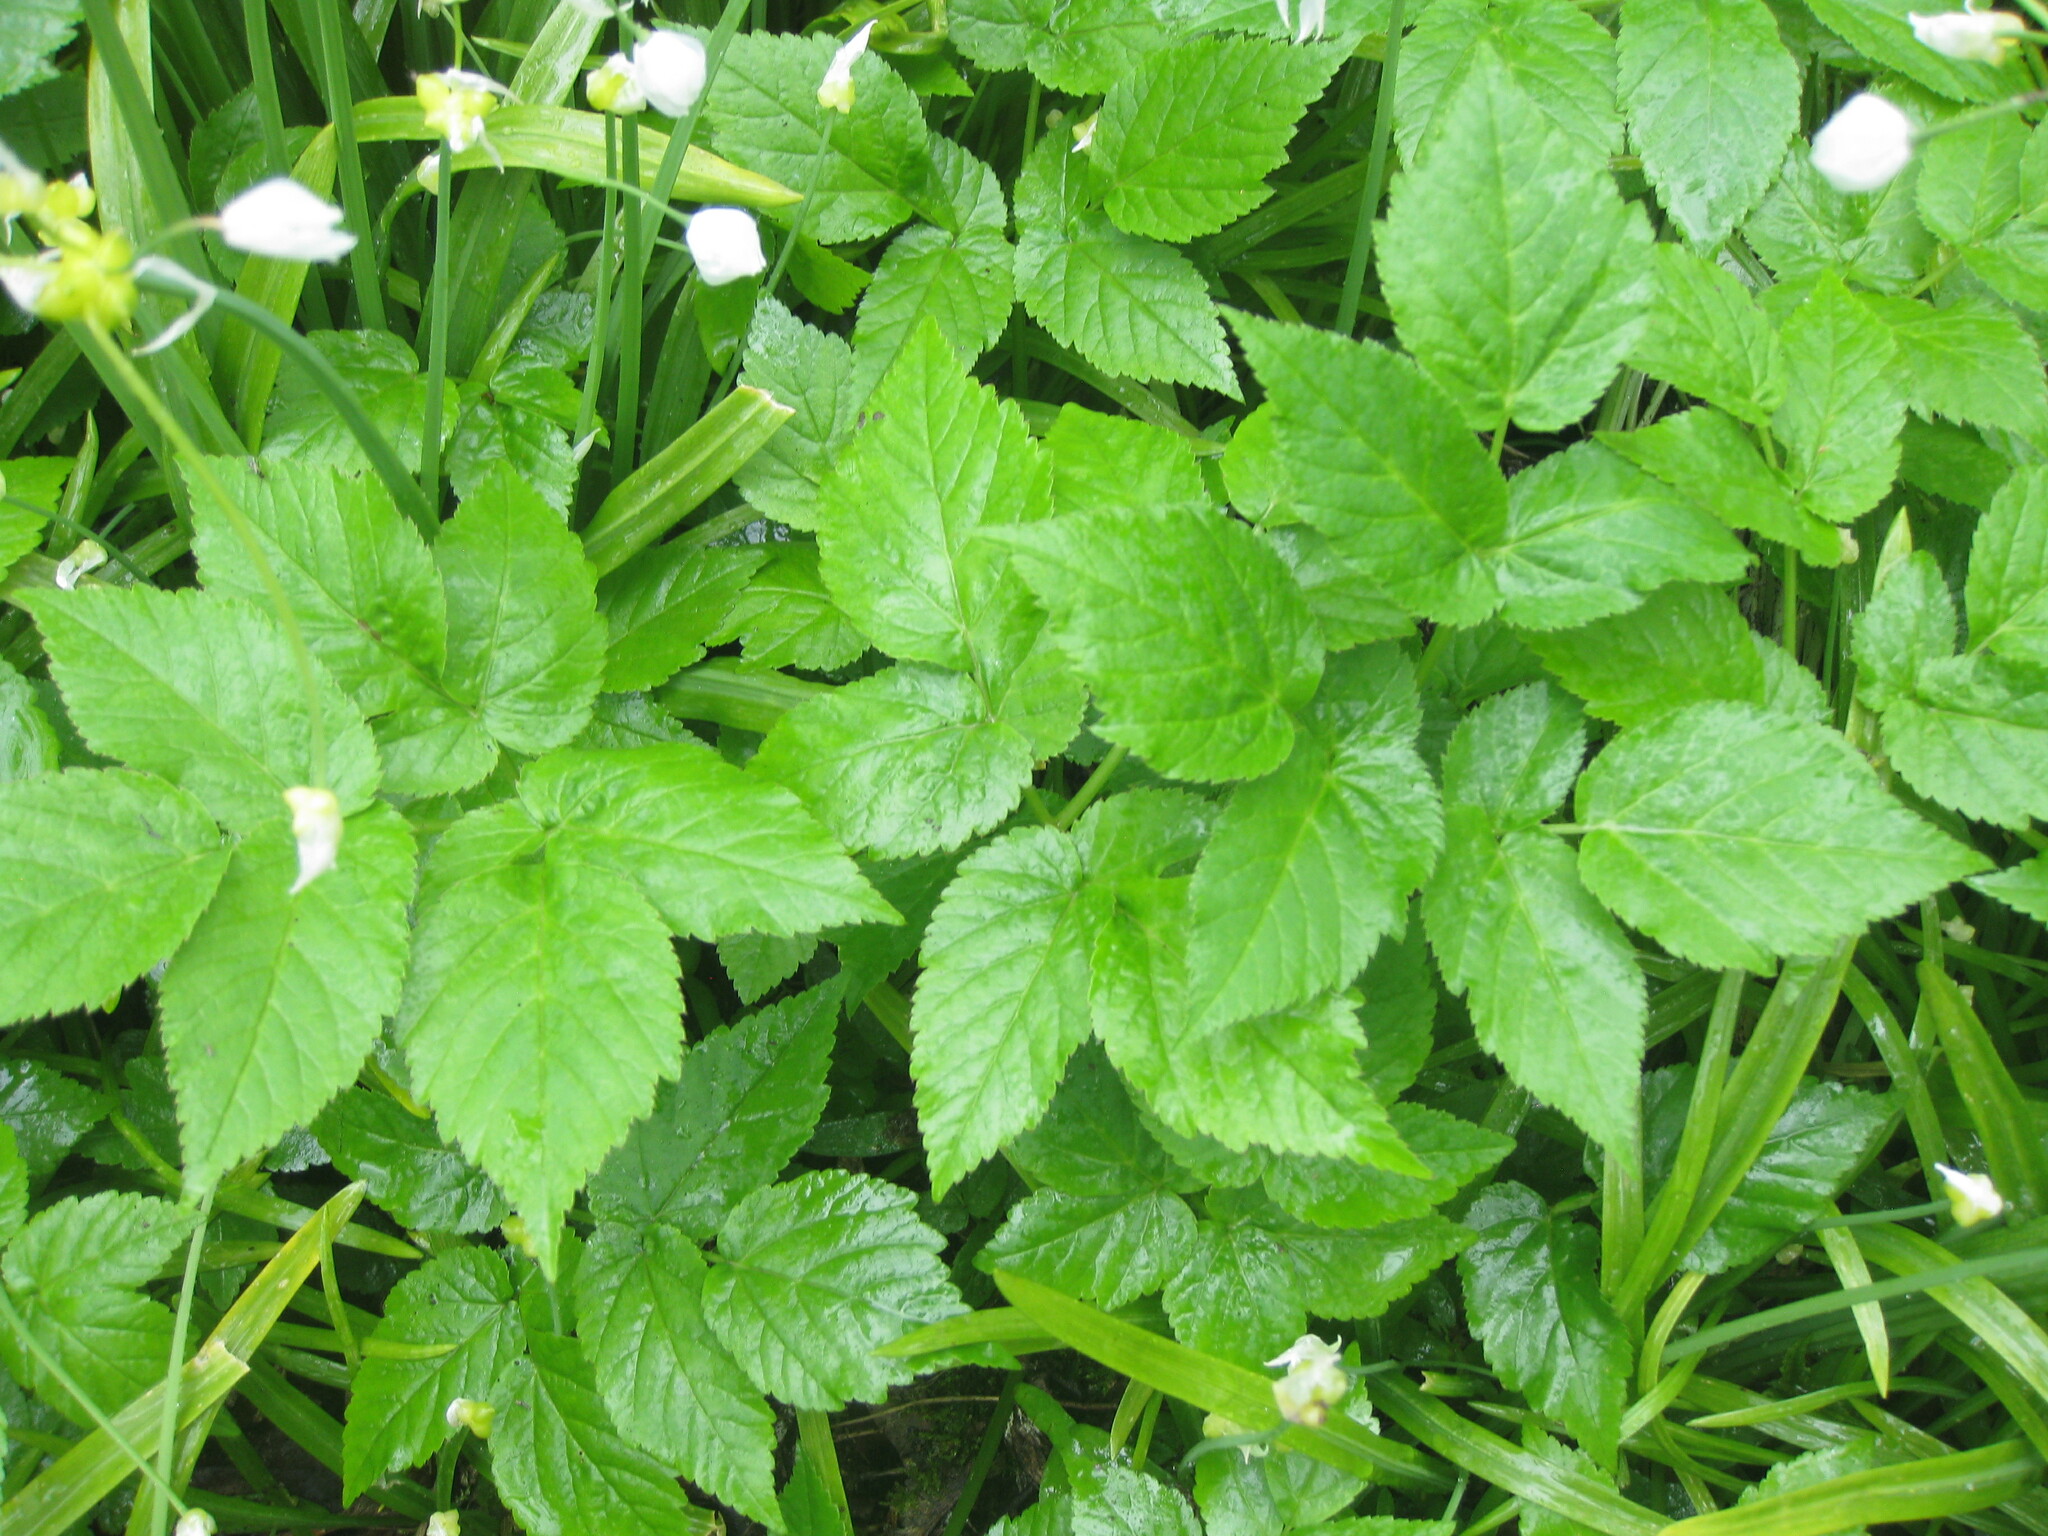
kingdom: Plantae
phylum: Tracheophyta
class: Magnoliopsida
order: Apiales
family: Apiaceae
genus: Aegopodium
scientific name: Aegopodium podagraria
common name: Ground-elder
